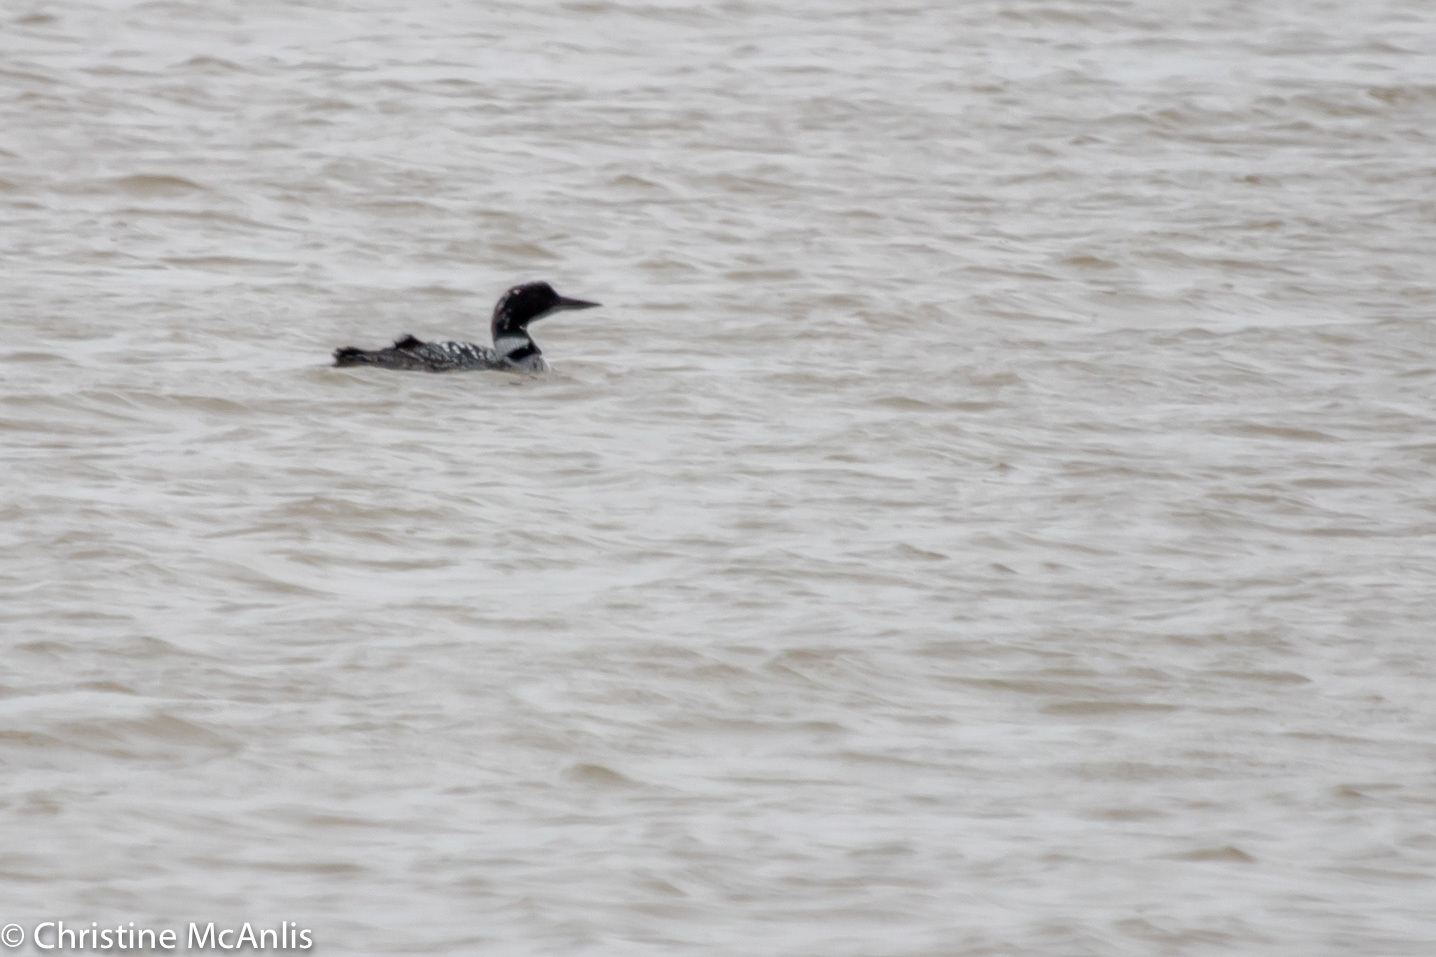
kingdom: Animalia
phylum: Chordata
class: Aves
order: Gaviiformes
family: Gaviidae
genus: Gavia
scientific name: Gavia immer
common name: Common loon
